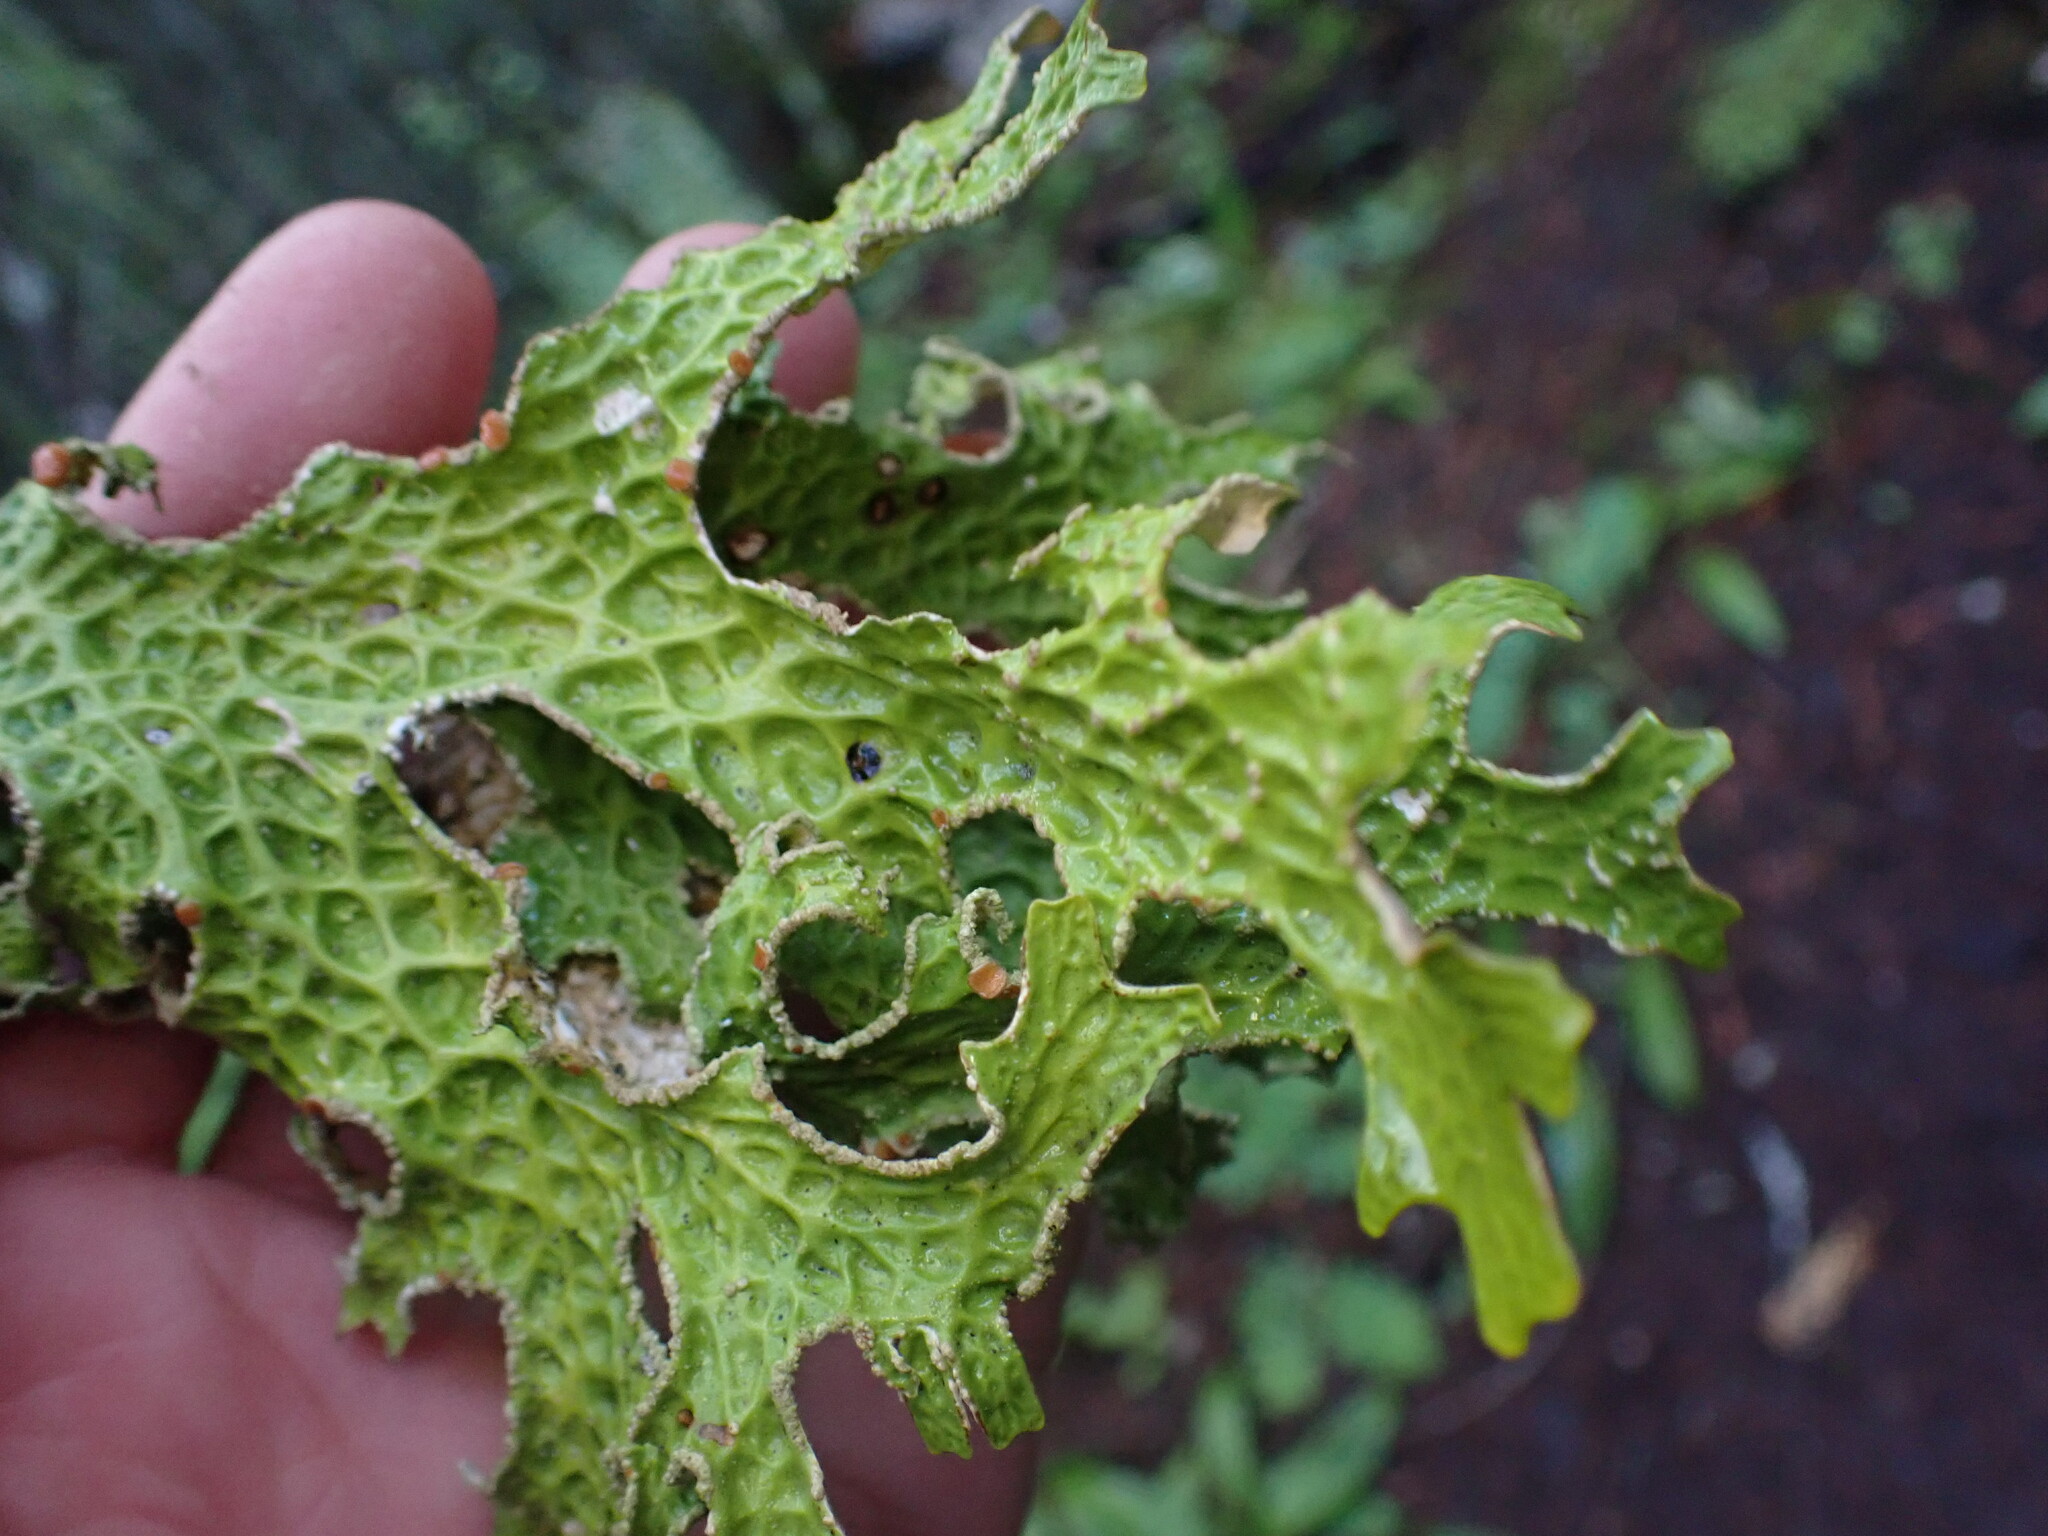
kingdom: Fungi
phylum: Ascomycota
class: Lecanoromycetes
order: Peltigerales
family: Lobariaceae
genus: Lobaria
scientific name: Lobaria pulmonaria
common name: Lungwort
